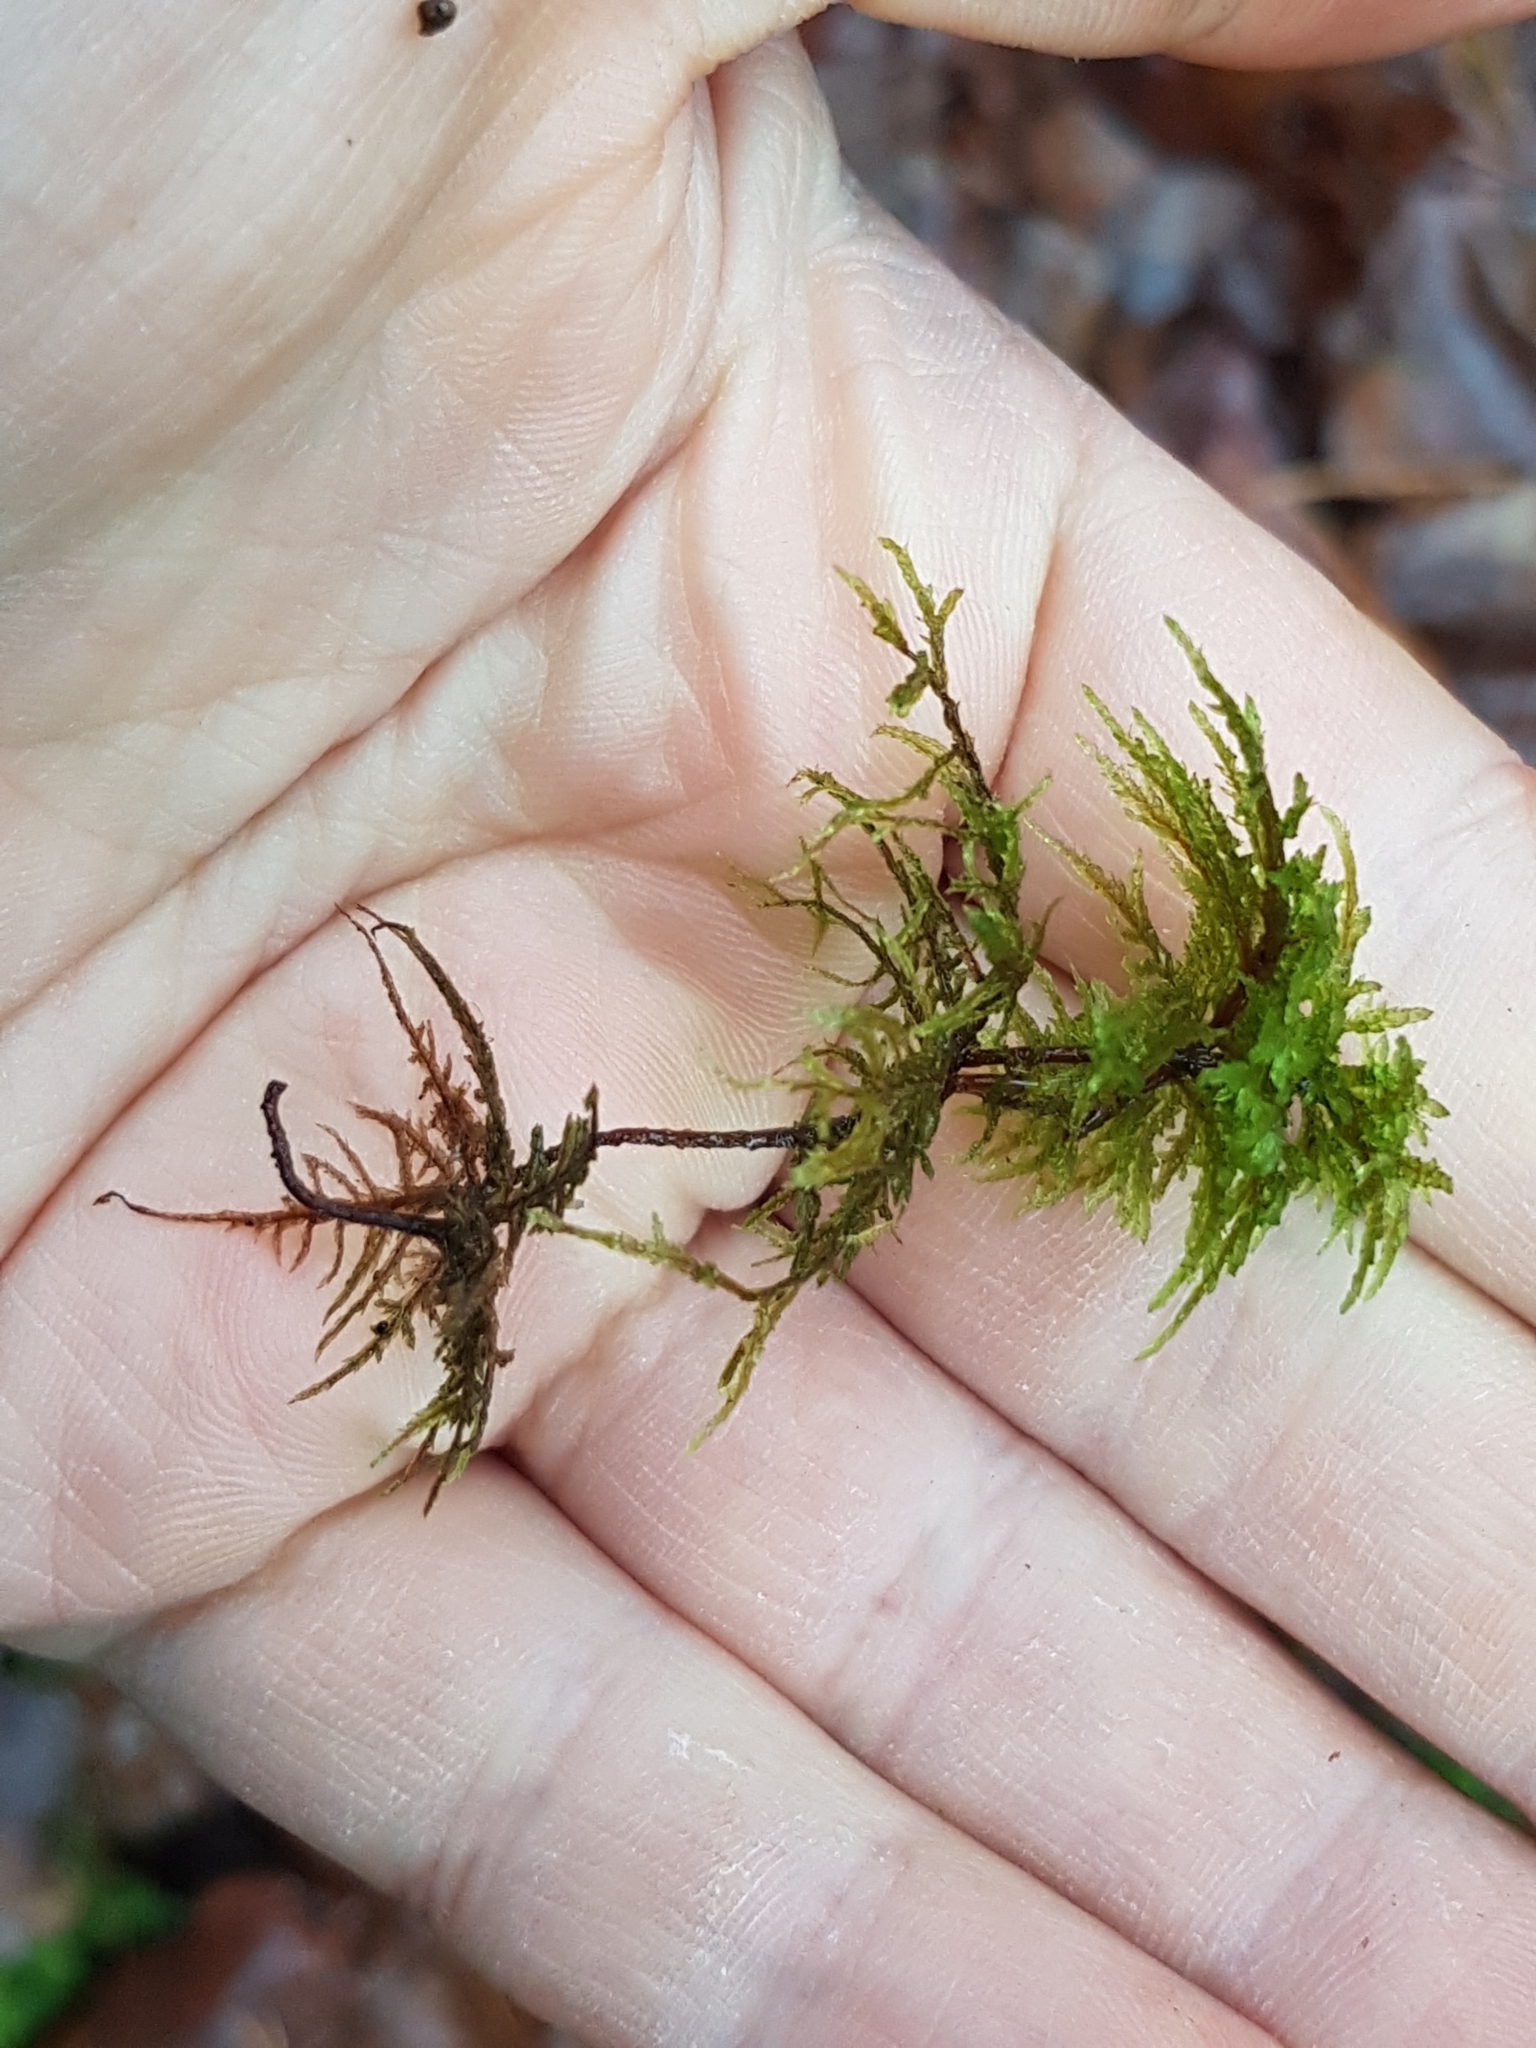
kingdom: Plantae
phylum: Bryophyta
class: Bryopsida
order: Hypnales
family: Hylocomiaceae
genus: Hylocomium
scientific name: Hylocomium splendens
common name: Stairstep moss
